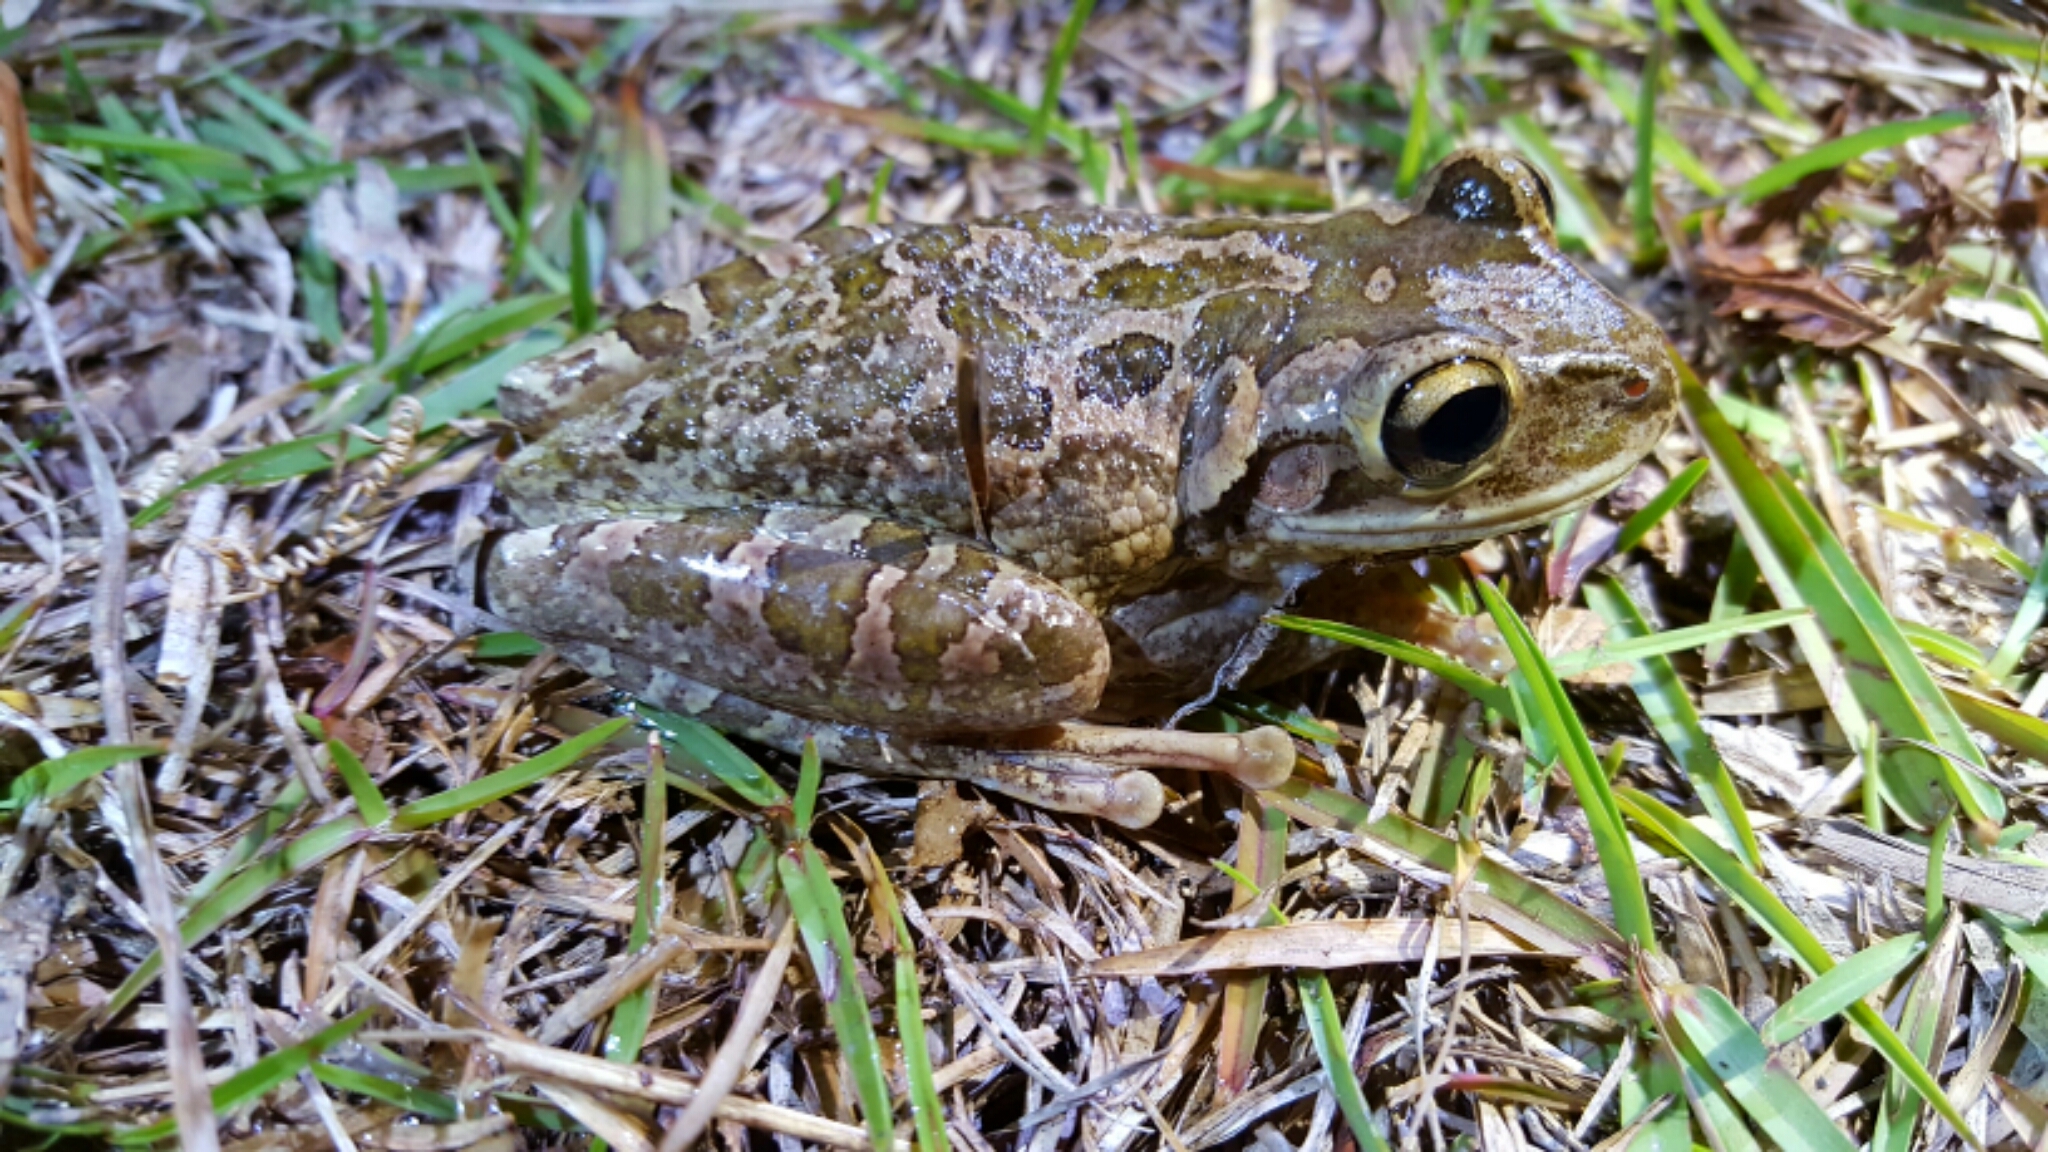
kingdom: Animalia
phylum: Chordata
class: Amphibia
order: Anura
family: Hylidae
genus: Osteopilus
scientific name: Osteopilus septentrionalis
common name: Cuban treefrog
